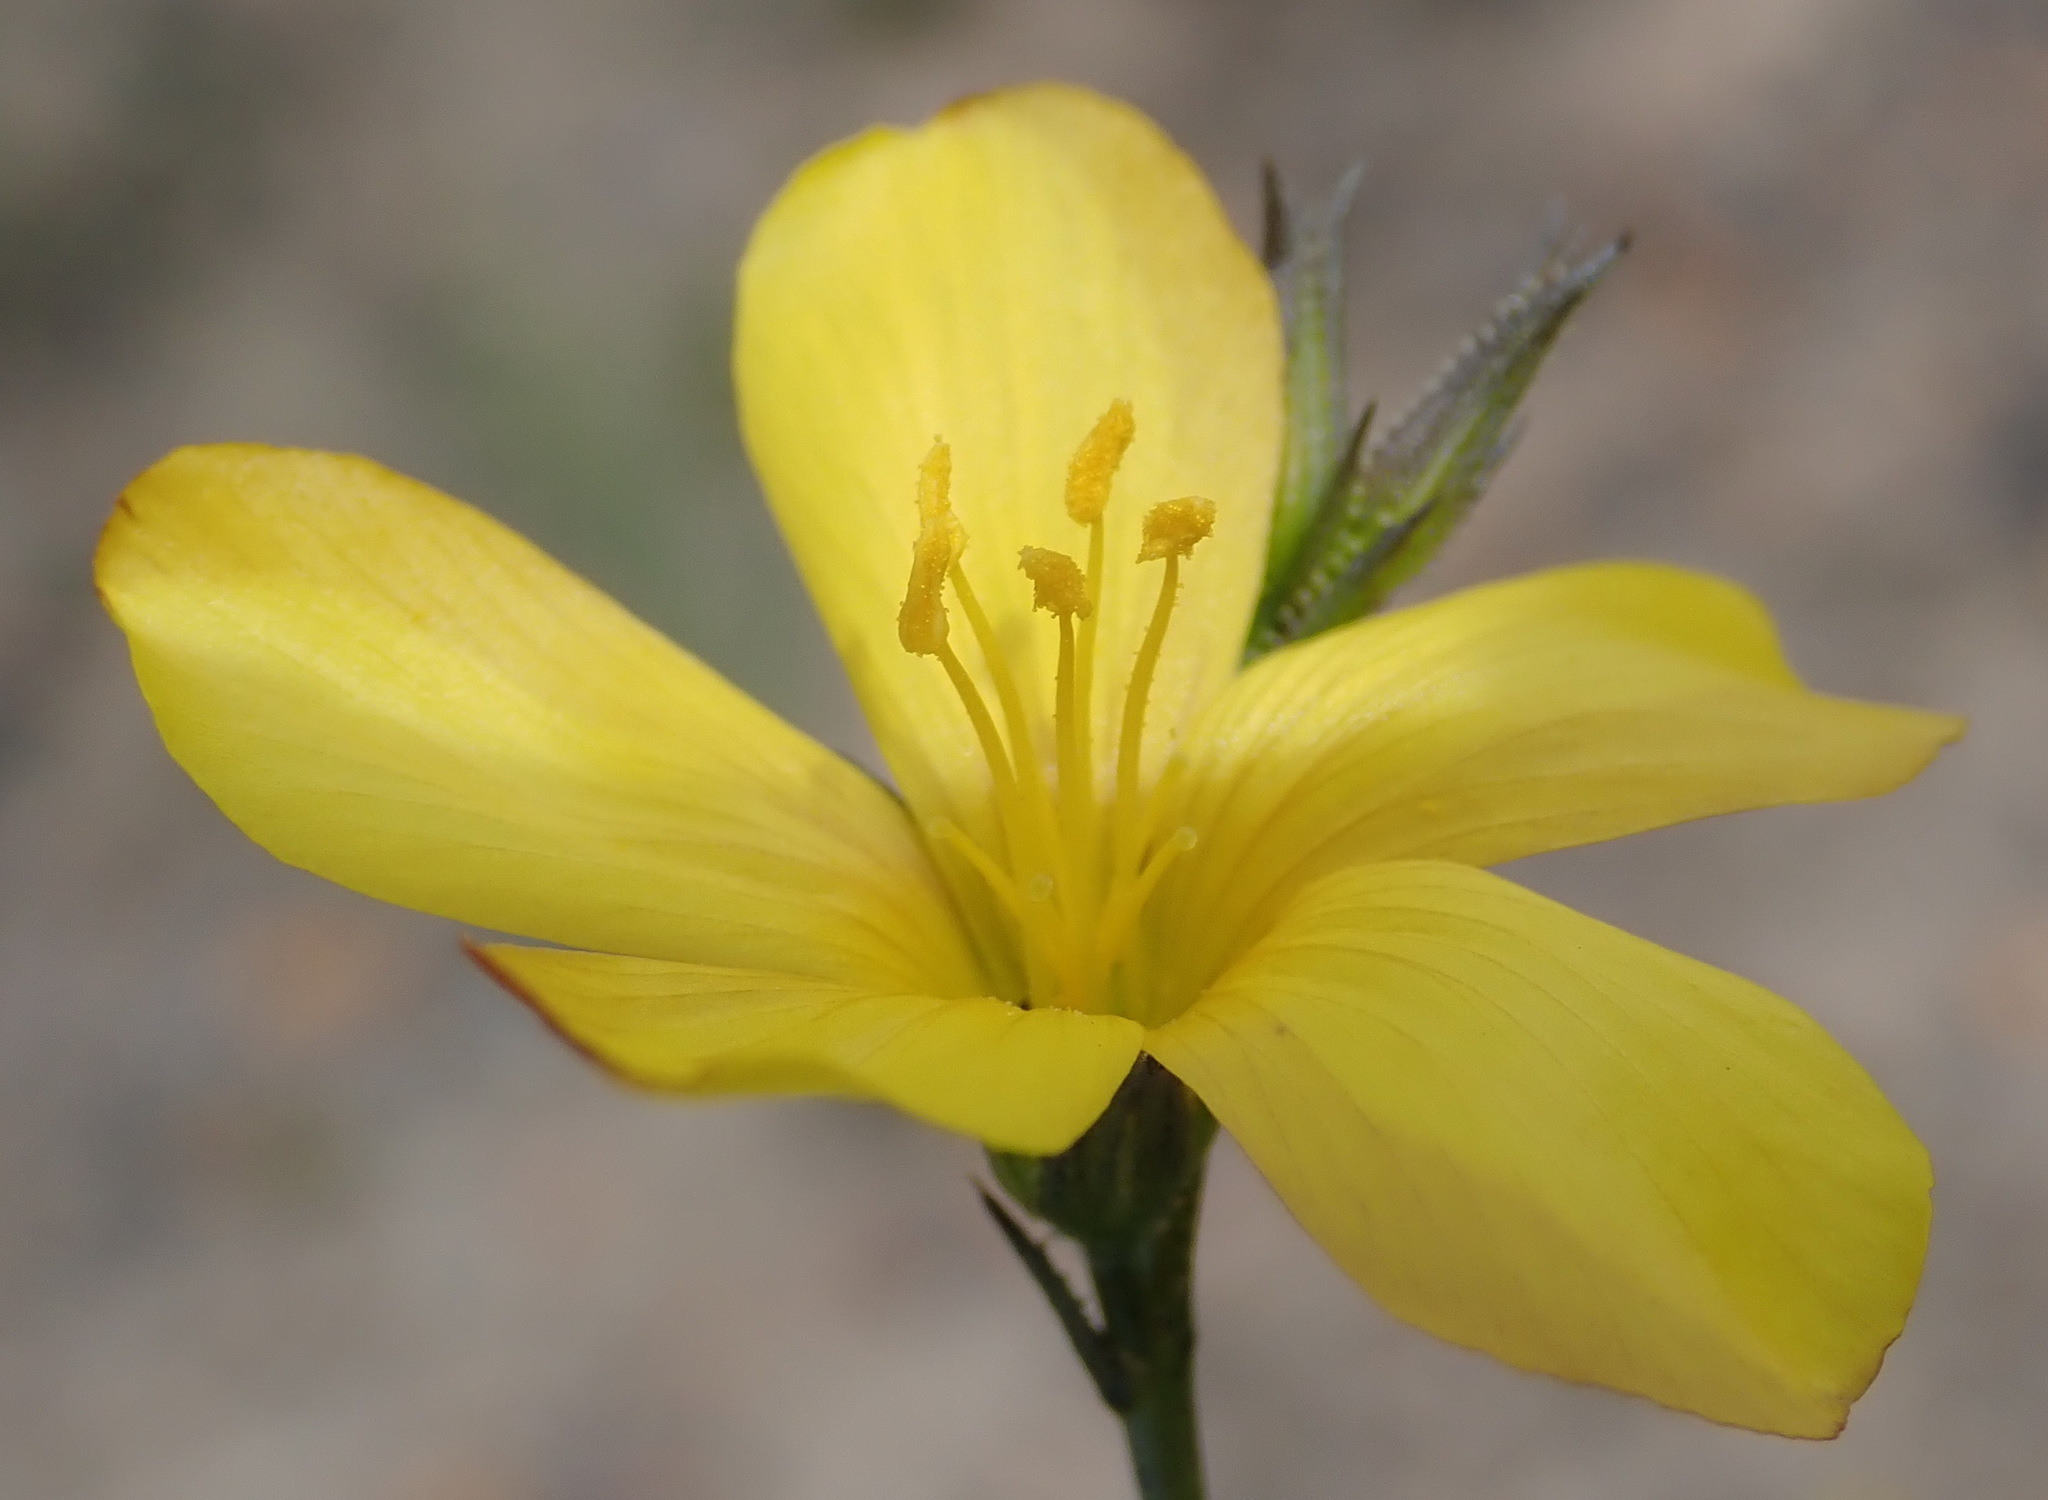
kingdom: Plantae
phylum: Tracheophyta
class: Magnoliopsida
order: Malpighiales
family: Linaceae
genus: Linum
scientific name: Linum africanum
